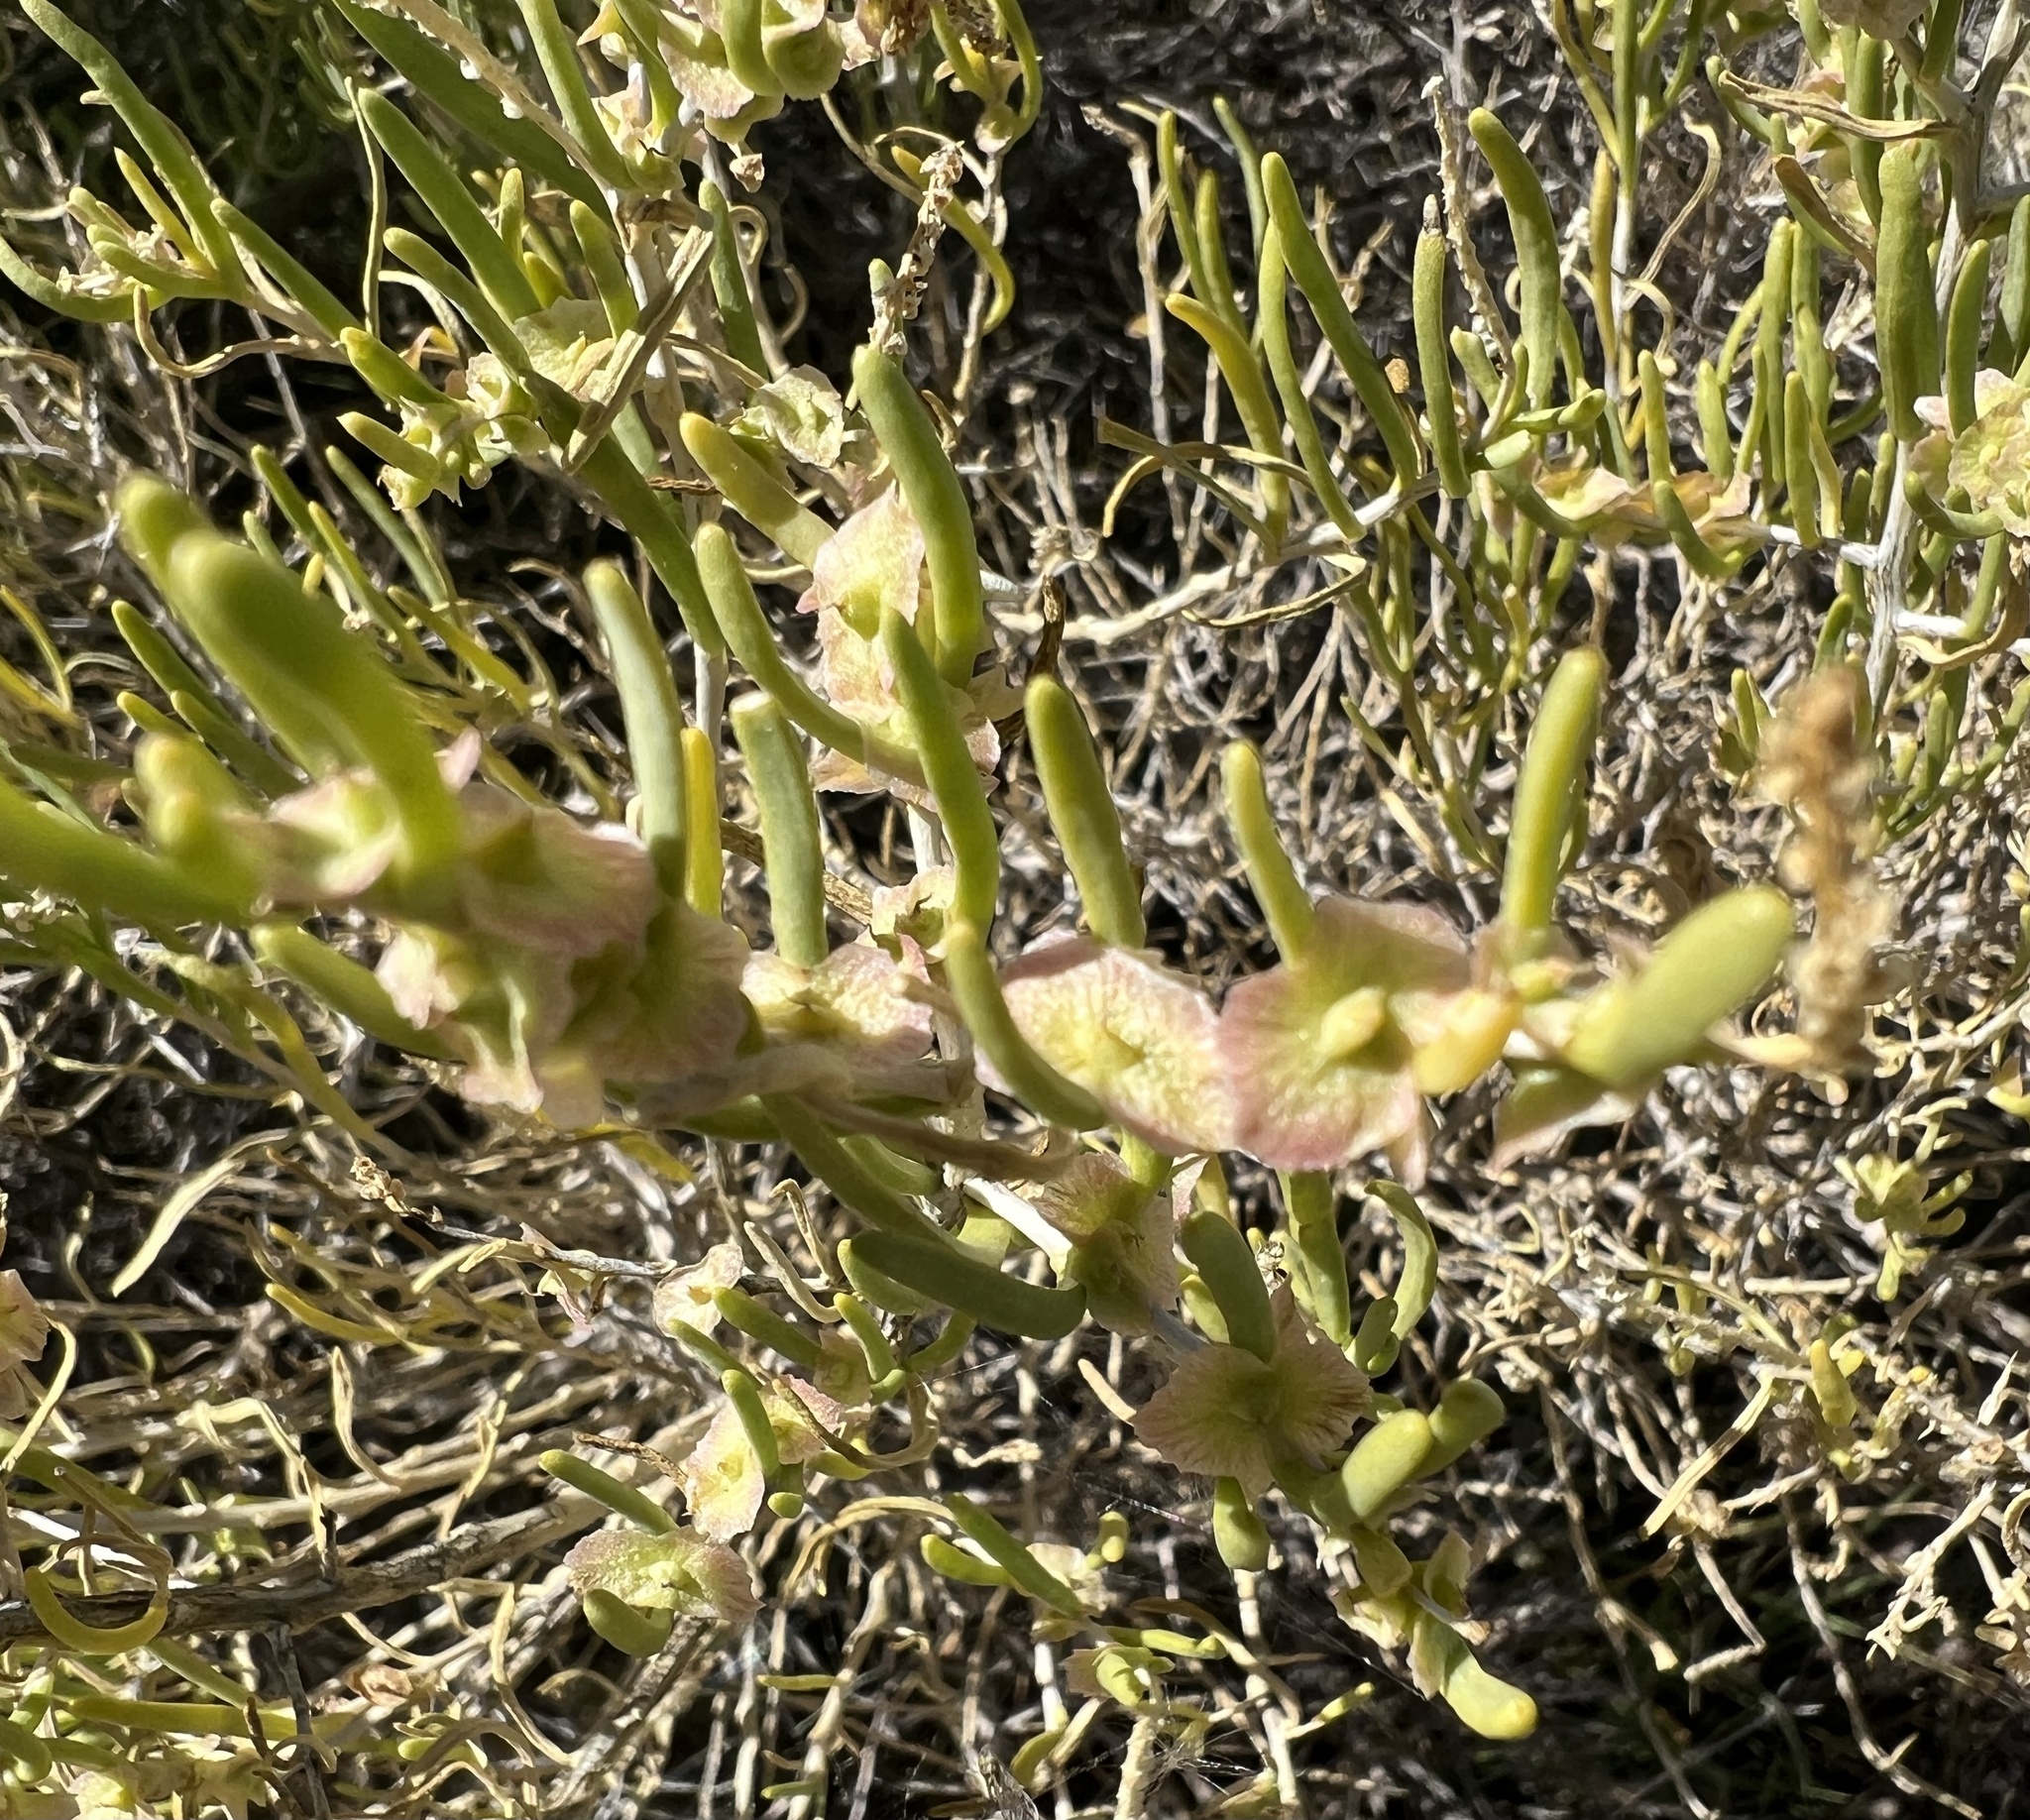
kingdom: Plantae
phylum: Tracheophyta
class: Magnoliopsida
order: Caryophyllales
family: Sarcobataceae
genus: Sarcobatus
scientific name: Sarcobatus vermiculatus
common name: Greasewood
